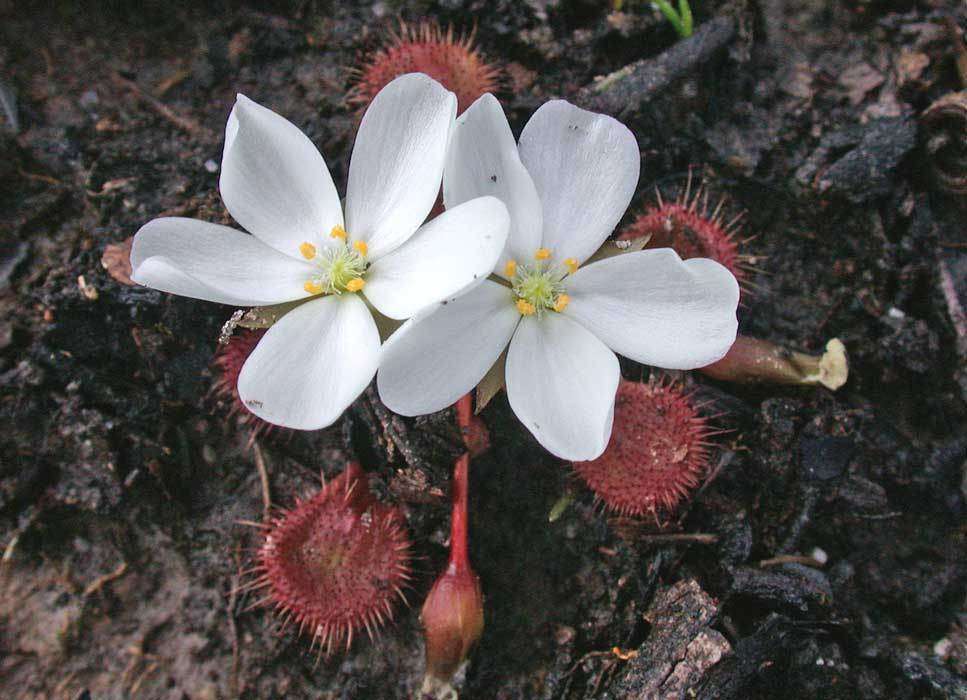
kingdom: Plantae
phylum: Tracheophyta
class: Magnoliopsida
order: Caryophyllales
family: Droseraceae
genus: Drosera
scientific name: Drosera aberrans
